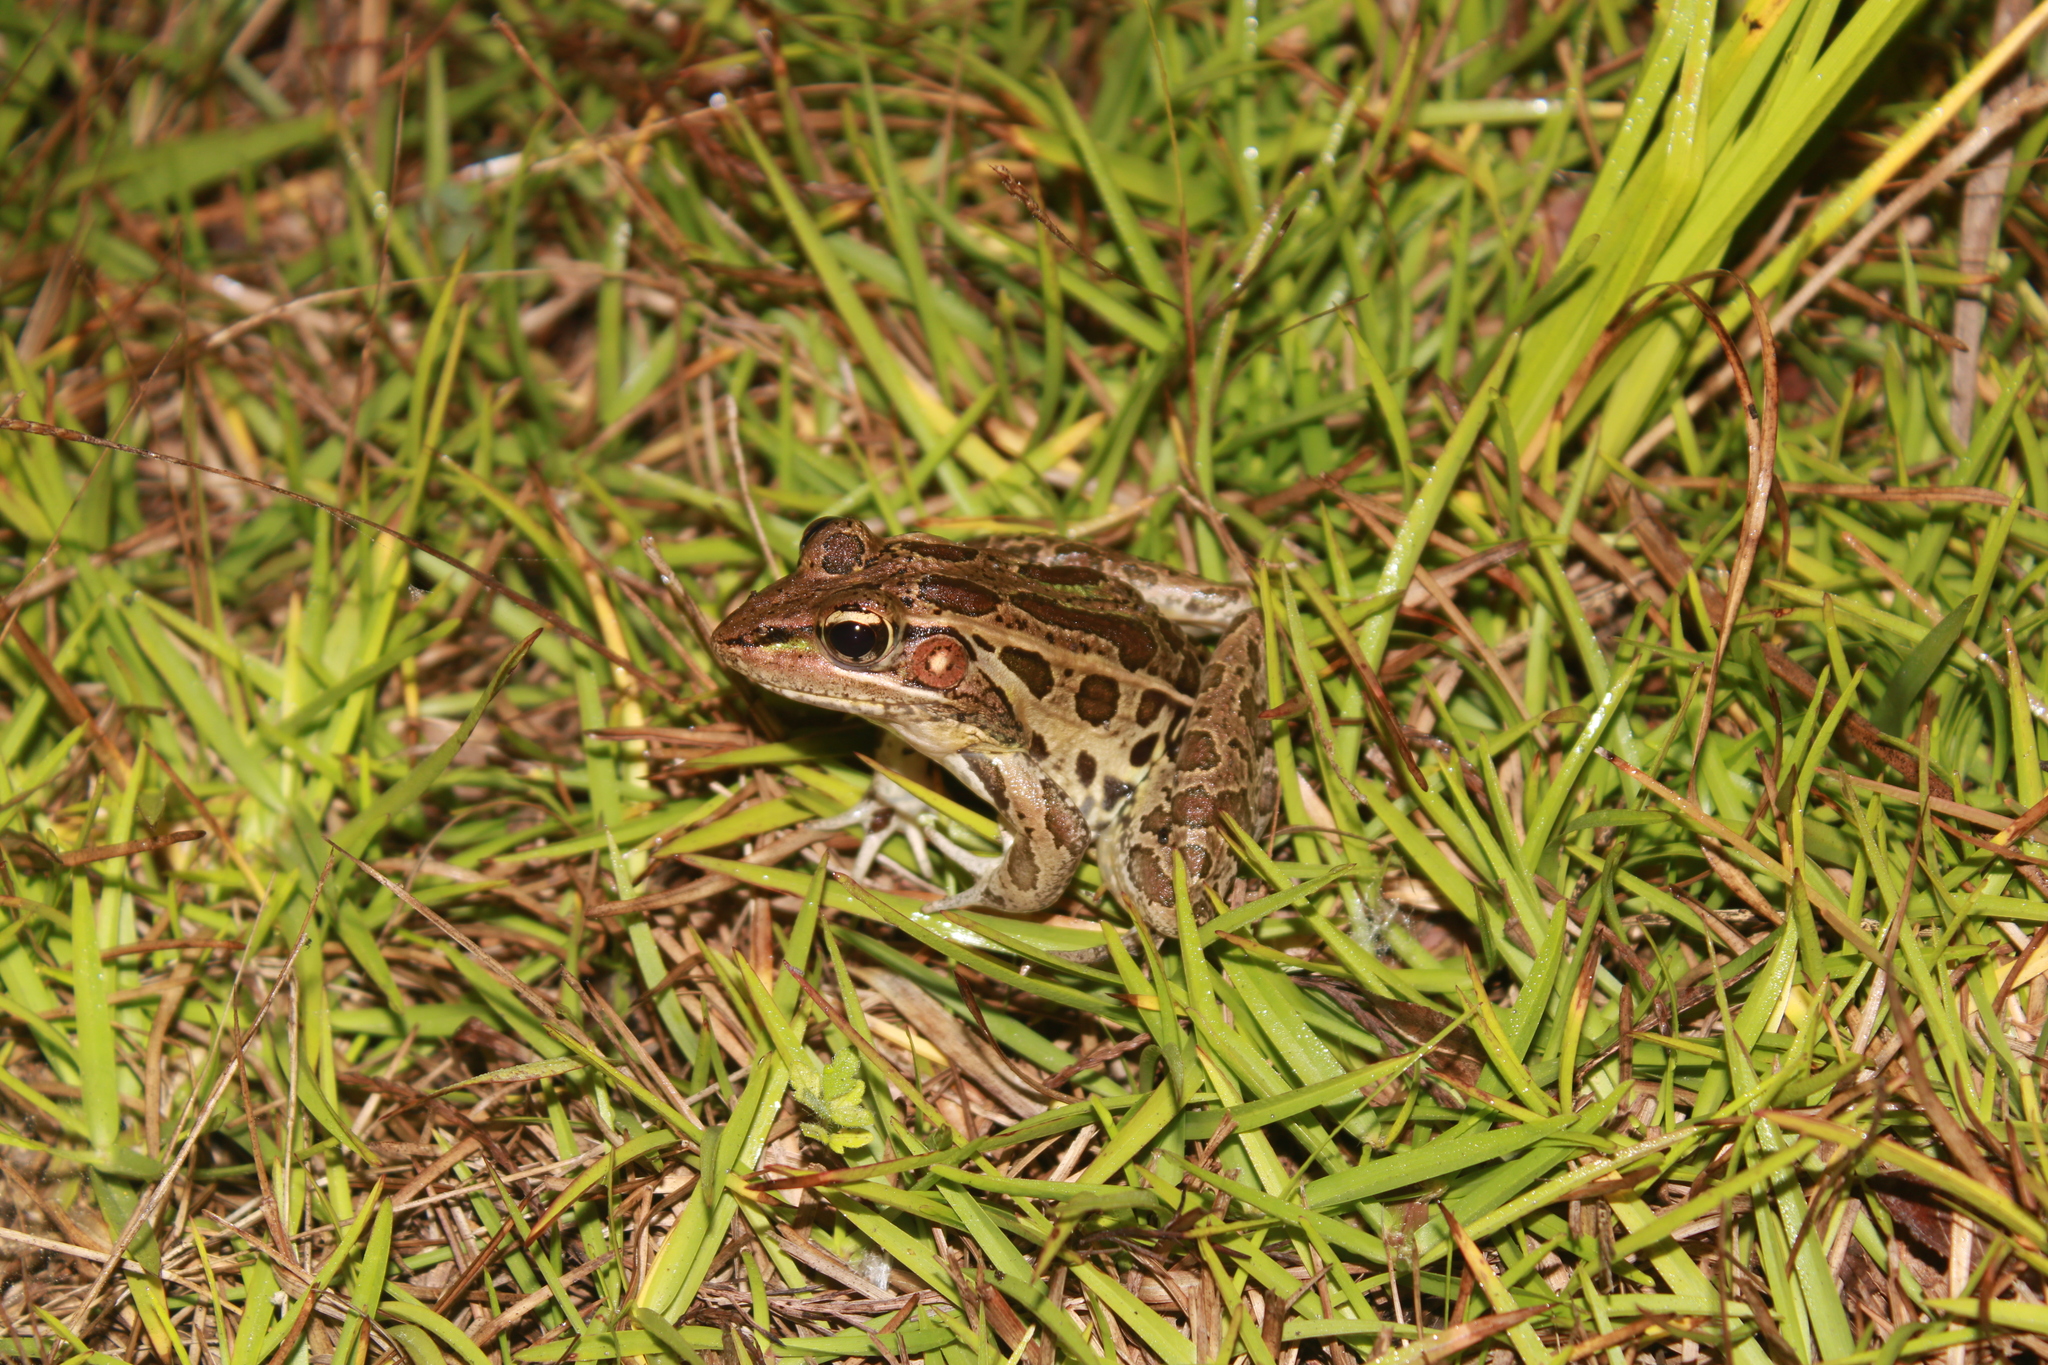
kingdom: Animalia
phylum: Chordata
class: Amphibia
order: Anura
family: Ranidae
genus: Lithobates
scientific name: Lithobates sphenocephalus
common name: Southern leopard frog
